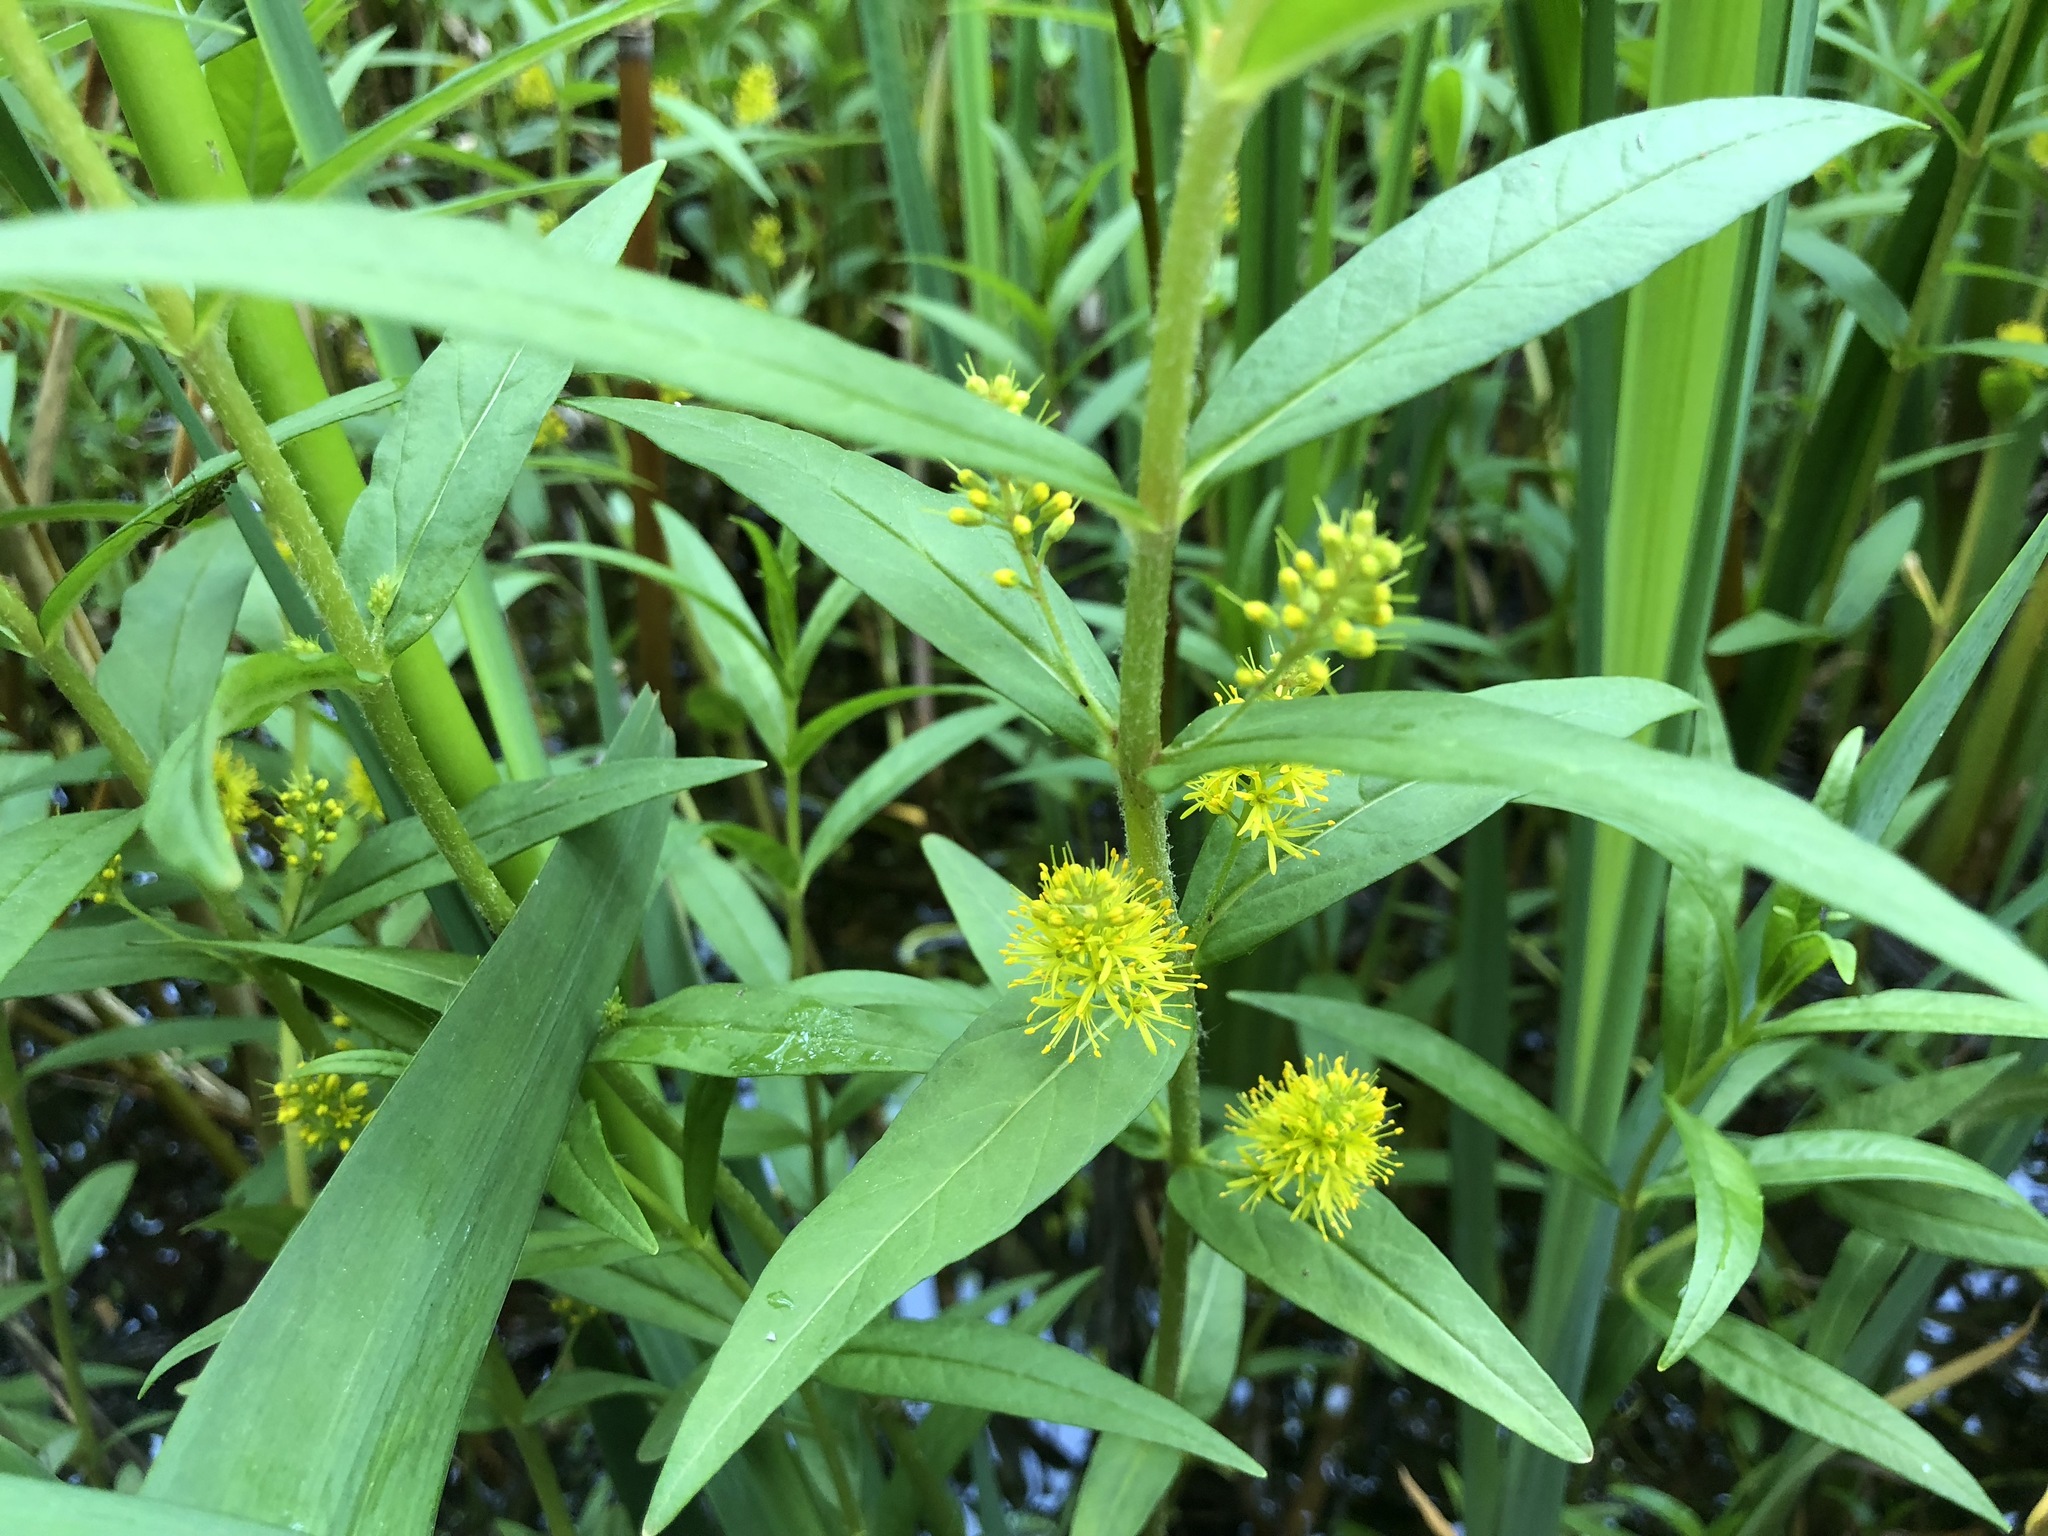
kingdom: Plantae
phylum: Tracheophyta
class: Magnoliopsida
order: Ericales
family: Primulaceae
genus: Lysimachia
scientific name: Lysimachia thyrsiflora
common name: Tufted loosestrife
